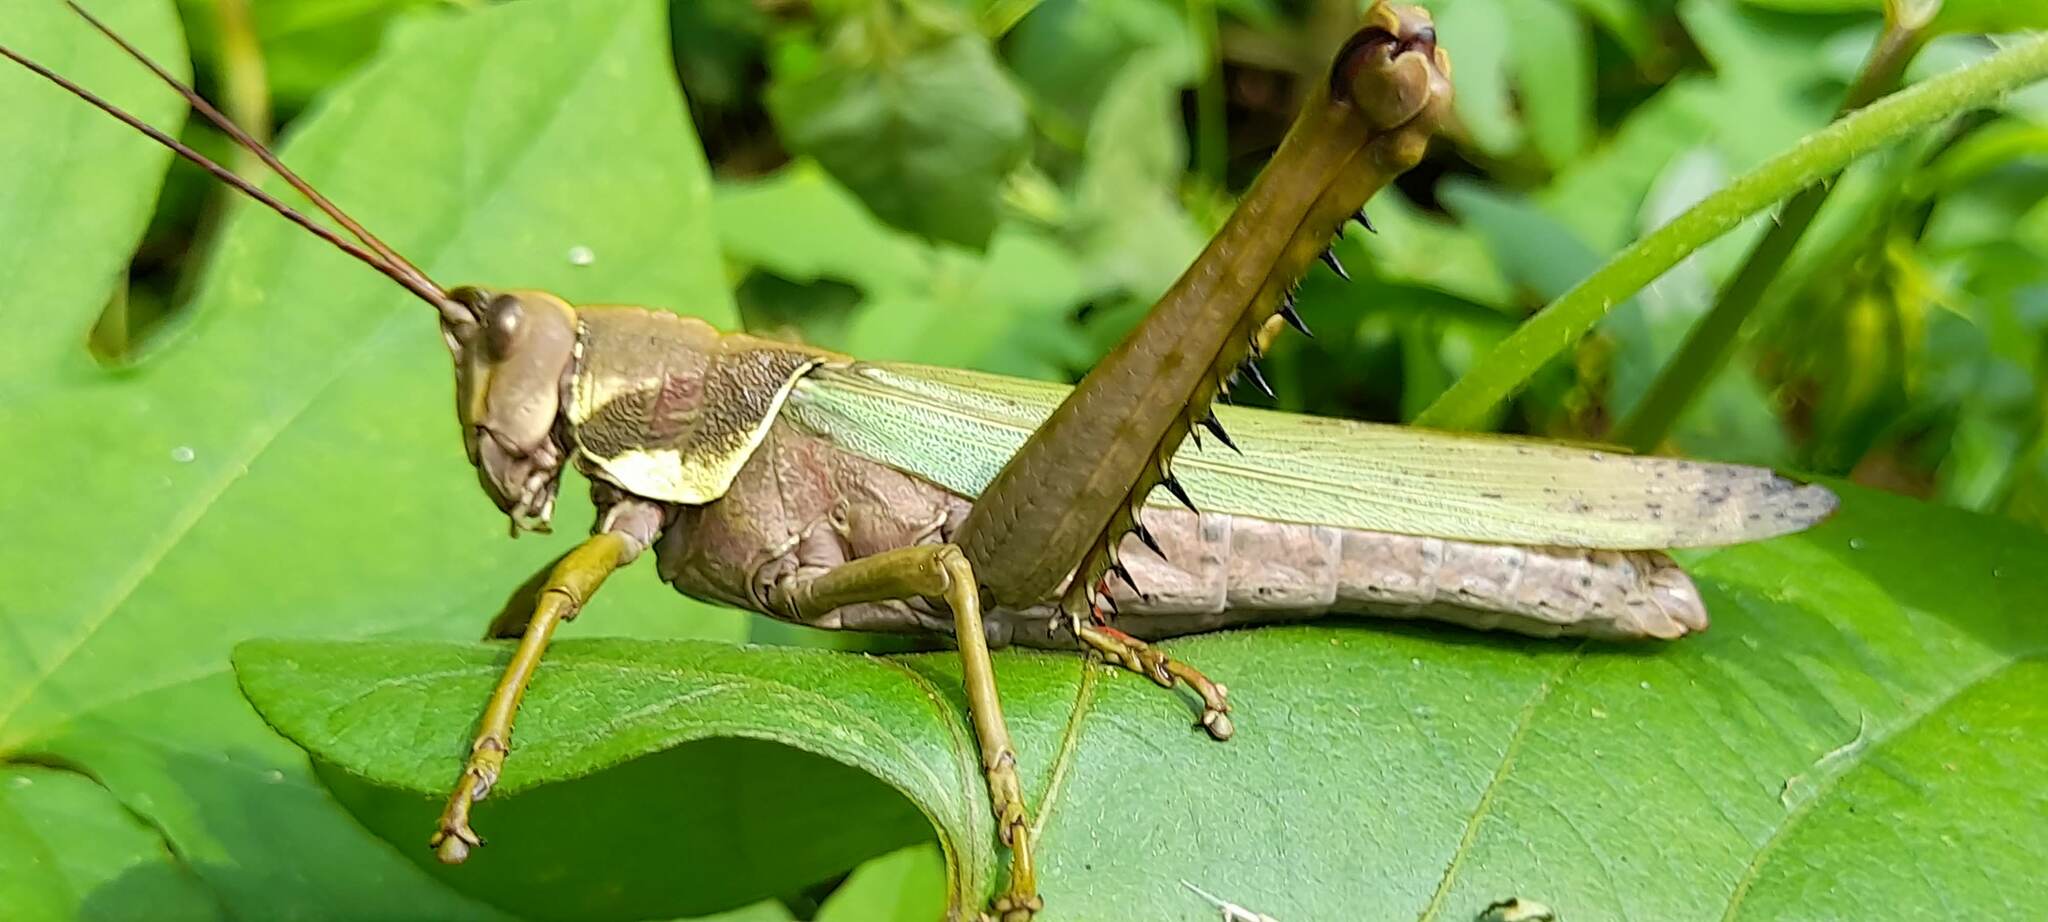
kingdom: Animalia
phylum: Arthropoda
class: Insecta
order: Orthoptera
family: Romaleidae
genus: Coryacris
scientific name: Coryacris angustipennis
